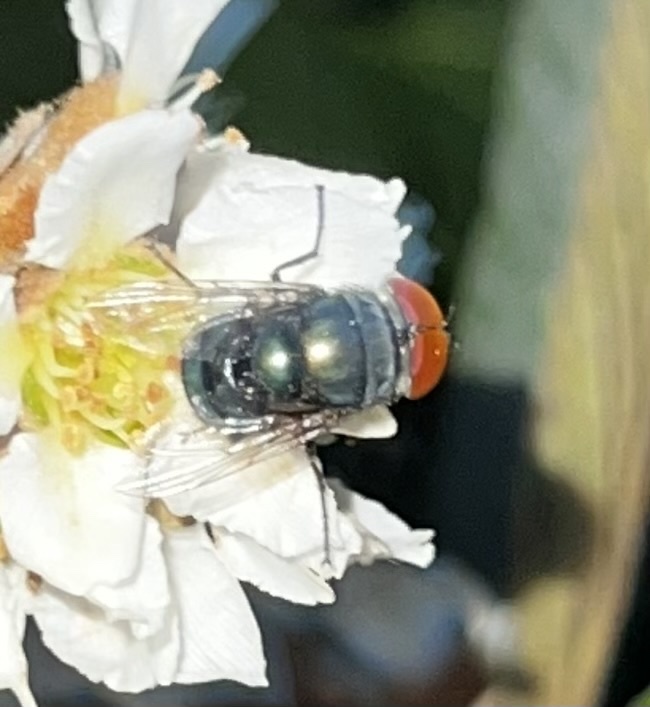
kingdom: Animalia
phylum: Arthropoda
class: Insecta
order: Diptera
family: Calliphoridae
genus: Chrysomya
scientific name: Chrysomya megacephala
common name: Blow fly
